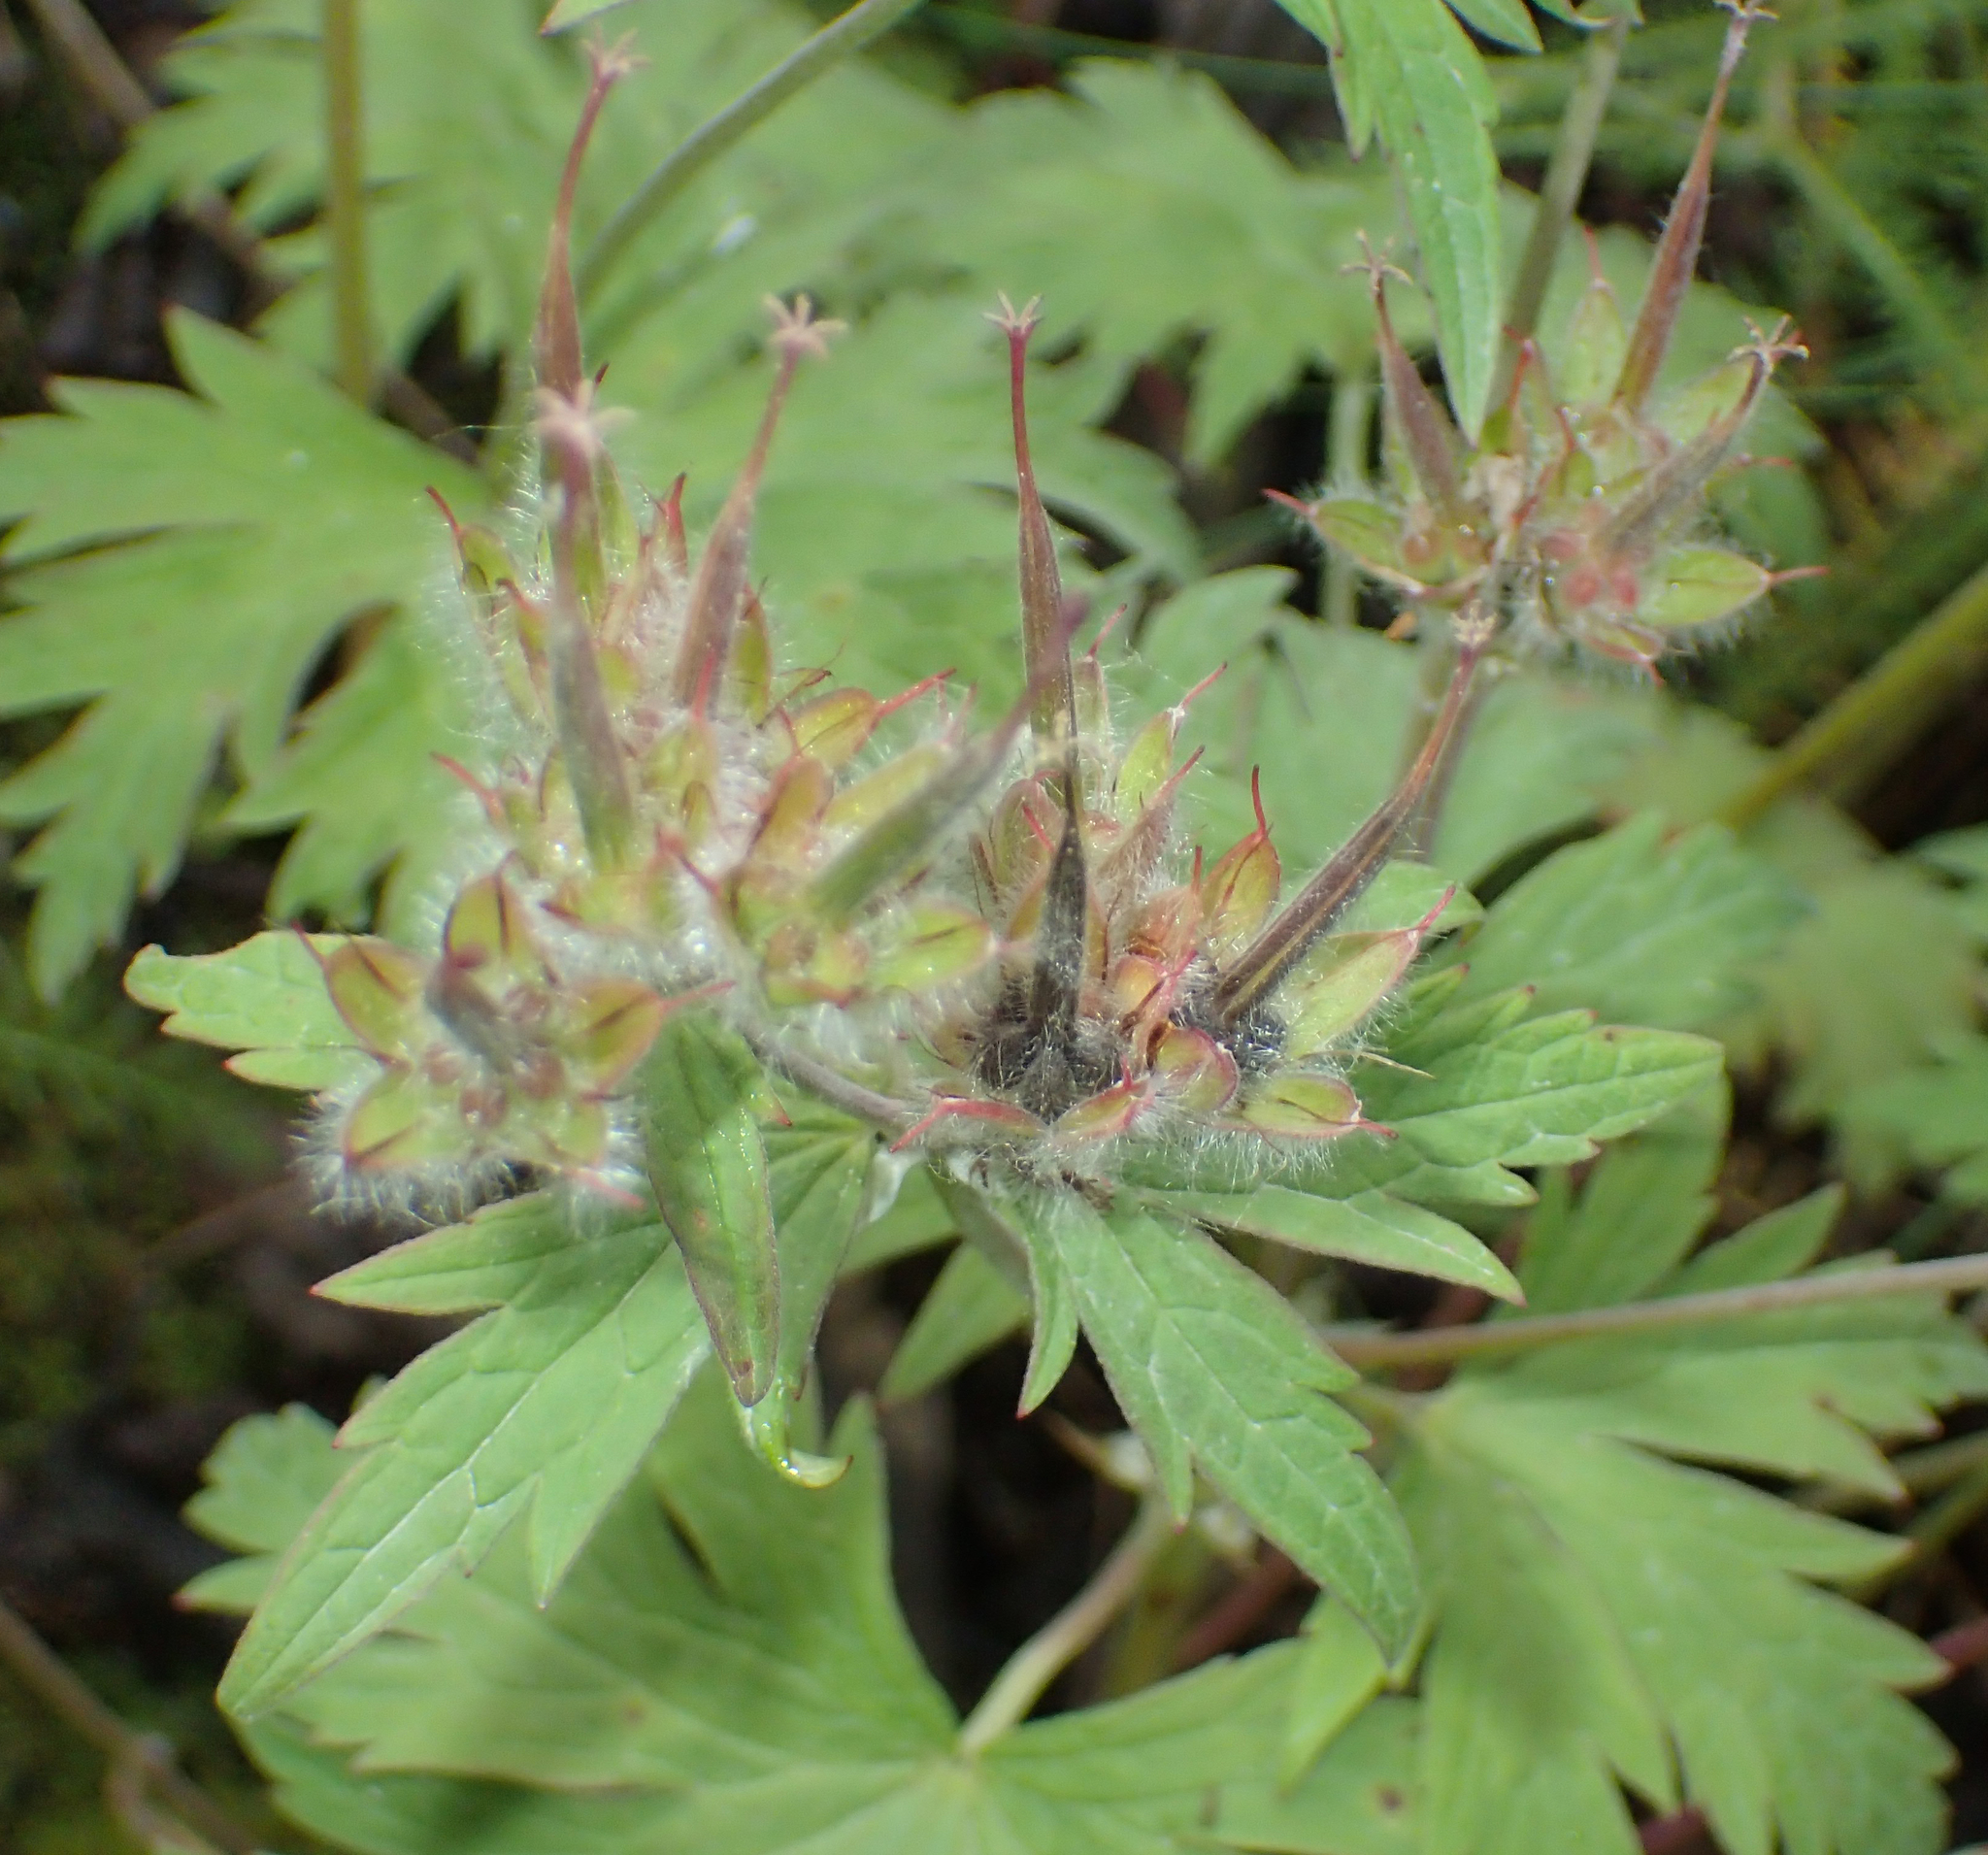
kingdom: Plantae
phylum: Tracheophyta
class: Magnoliopsida
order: Geraniales
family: Geraniaceae
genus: Geranium
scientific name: Geranium erianthum
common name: Northern crane's-bill
